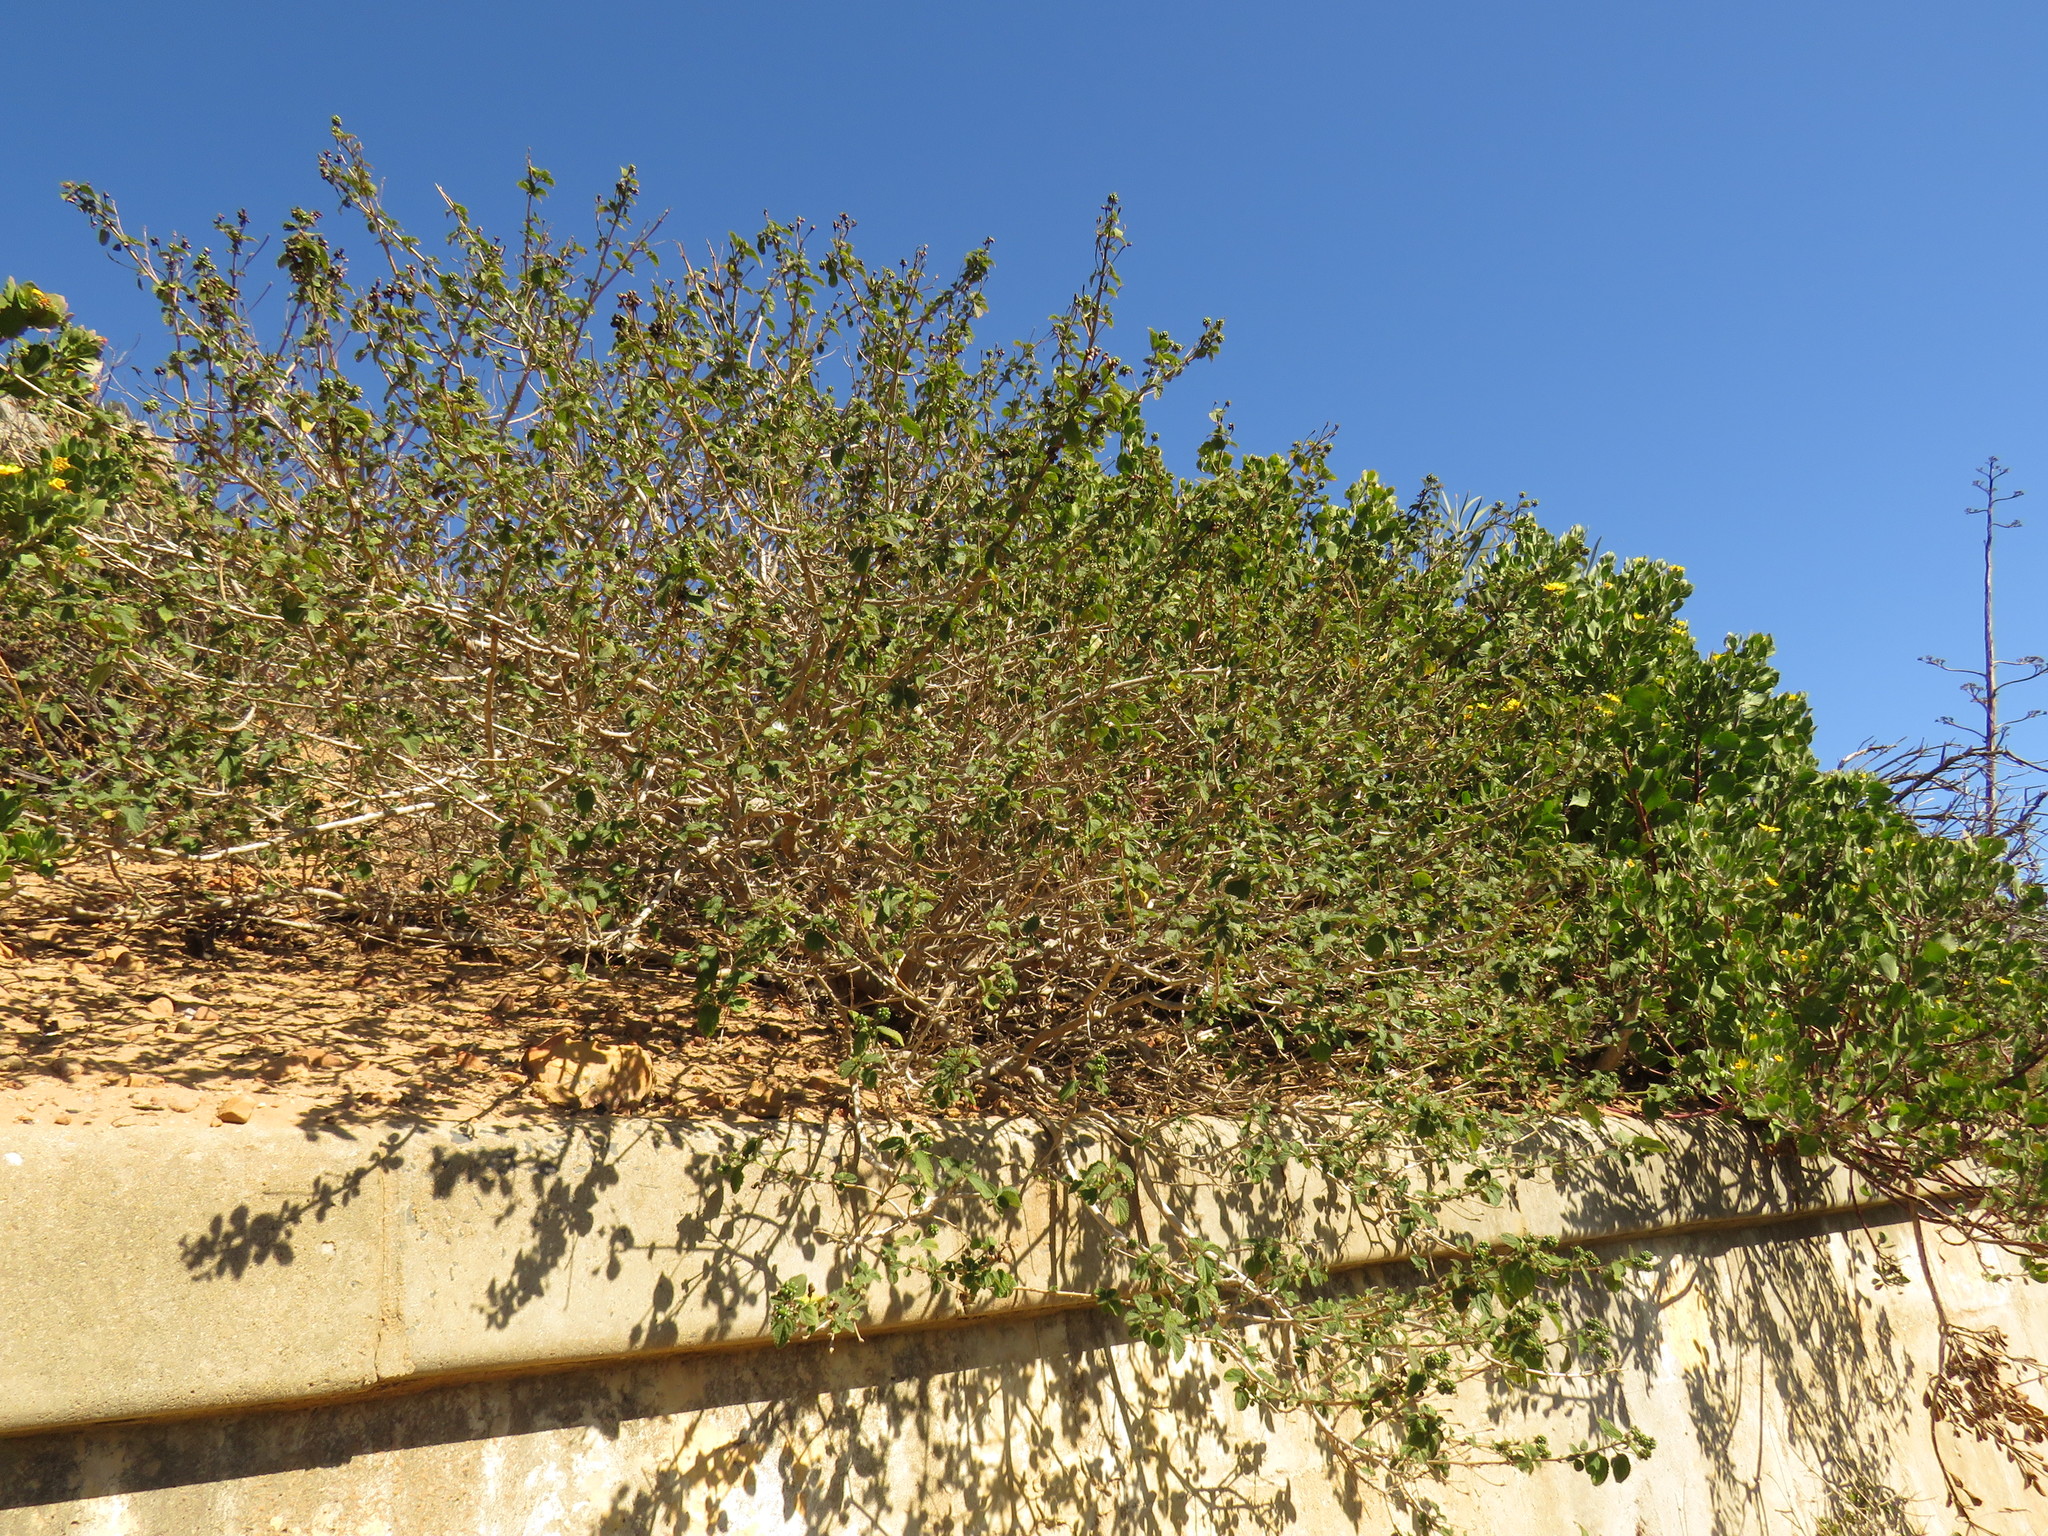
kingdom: Plantae
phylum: Tracheophyta
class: Magnoliopsida
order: Lamiales
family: Verbenaceae
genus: Lantana
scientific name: Lantana camara
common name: Lantana
